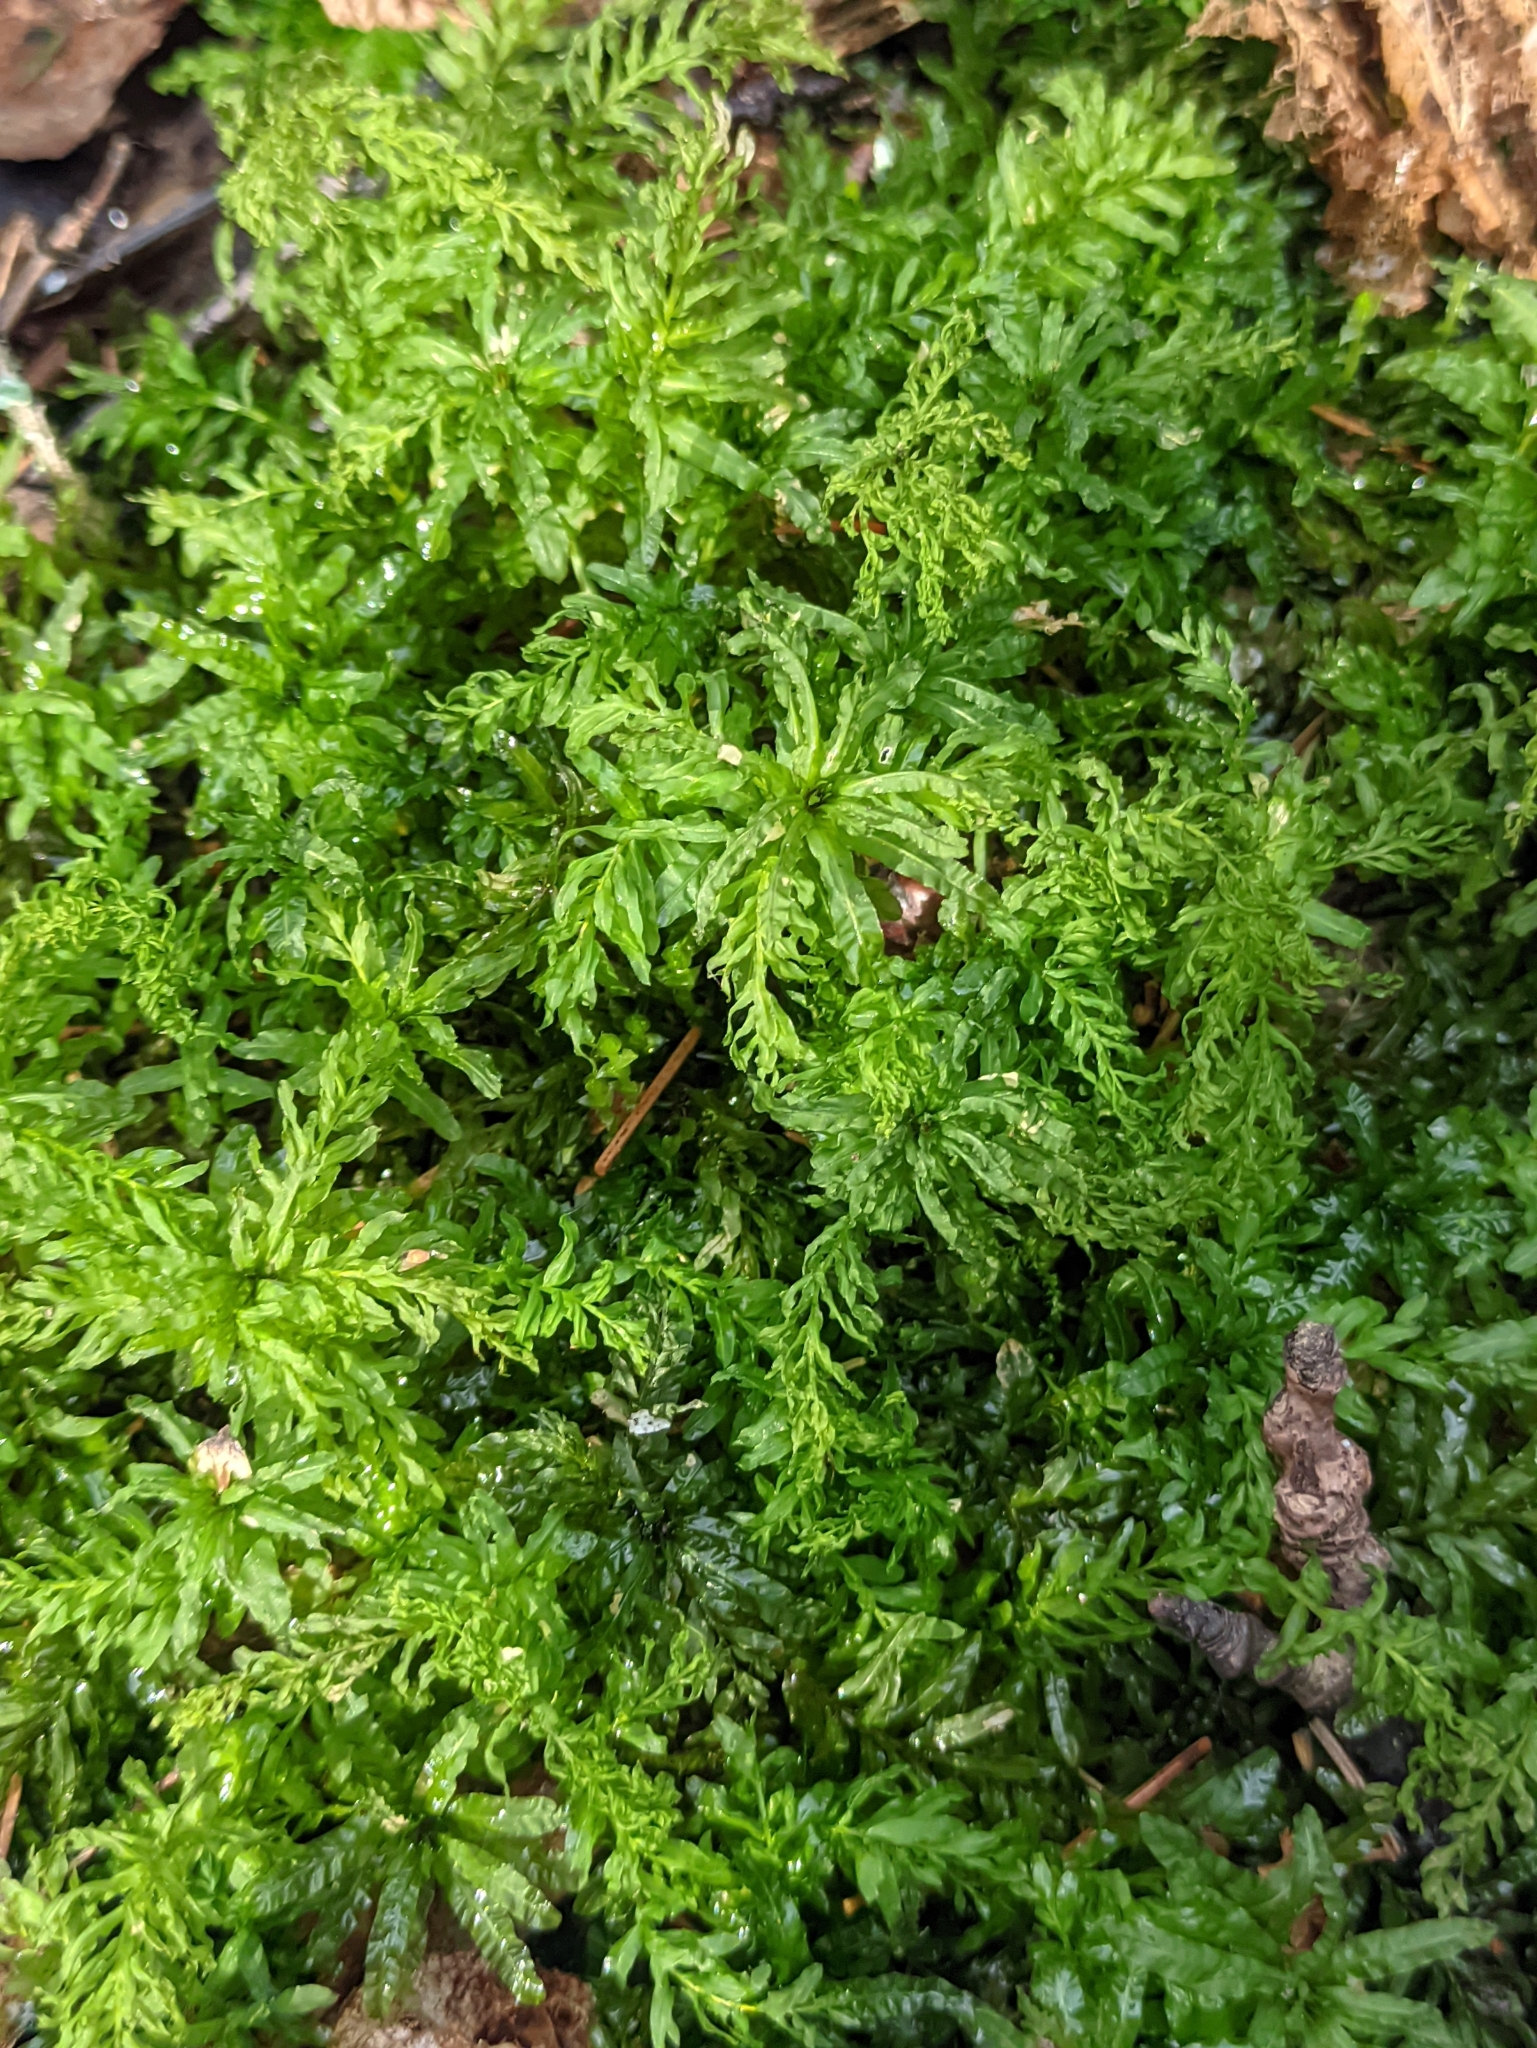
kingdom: Plantae
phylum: Bryophyta
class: Bryopsida
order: Bryales
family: Mniaceae
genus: Plagiomnium
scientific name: Plagiomnium undulatum
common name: Hart's-tongue thyme-moss
